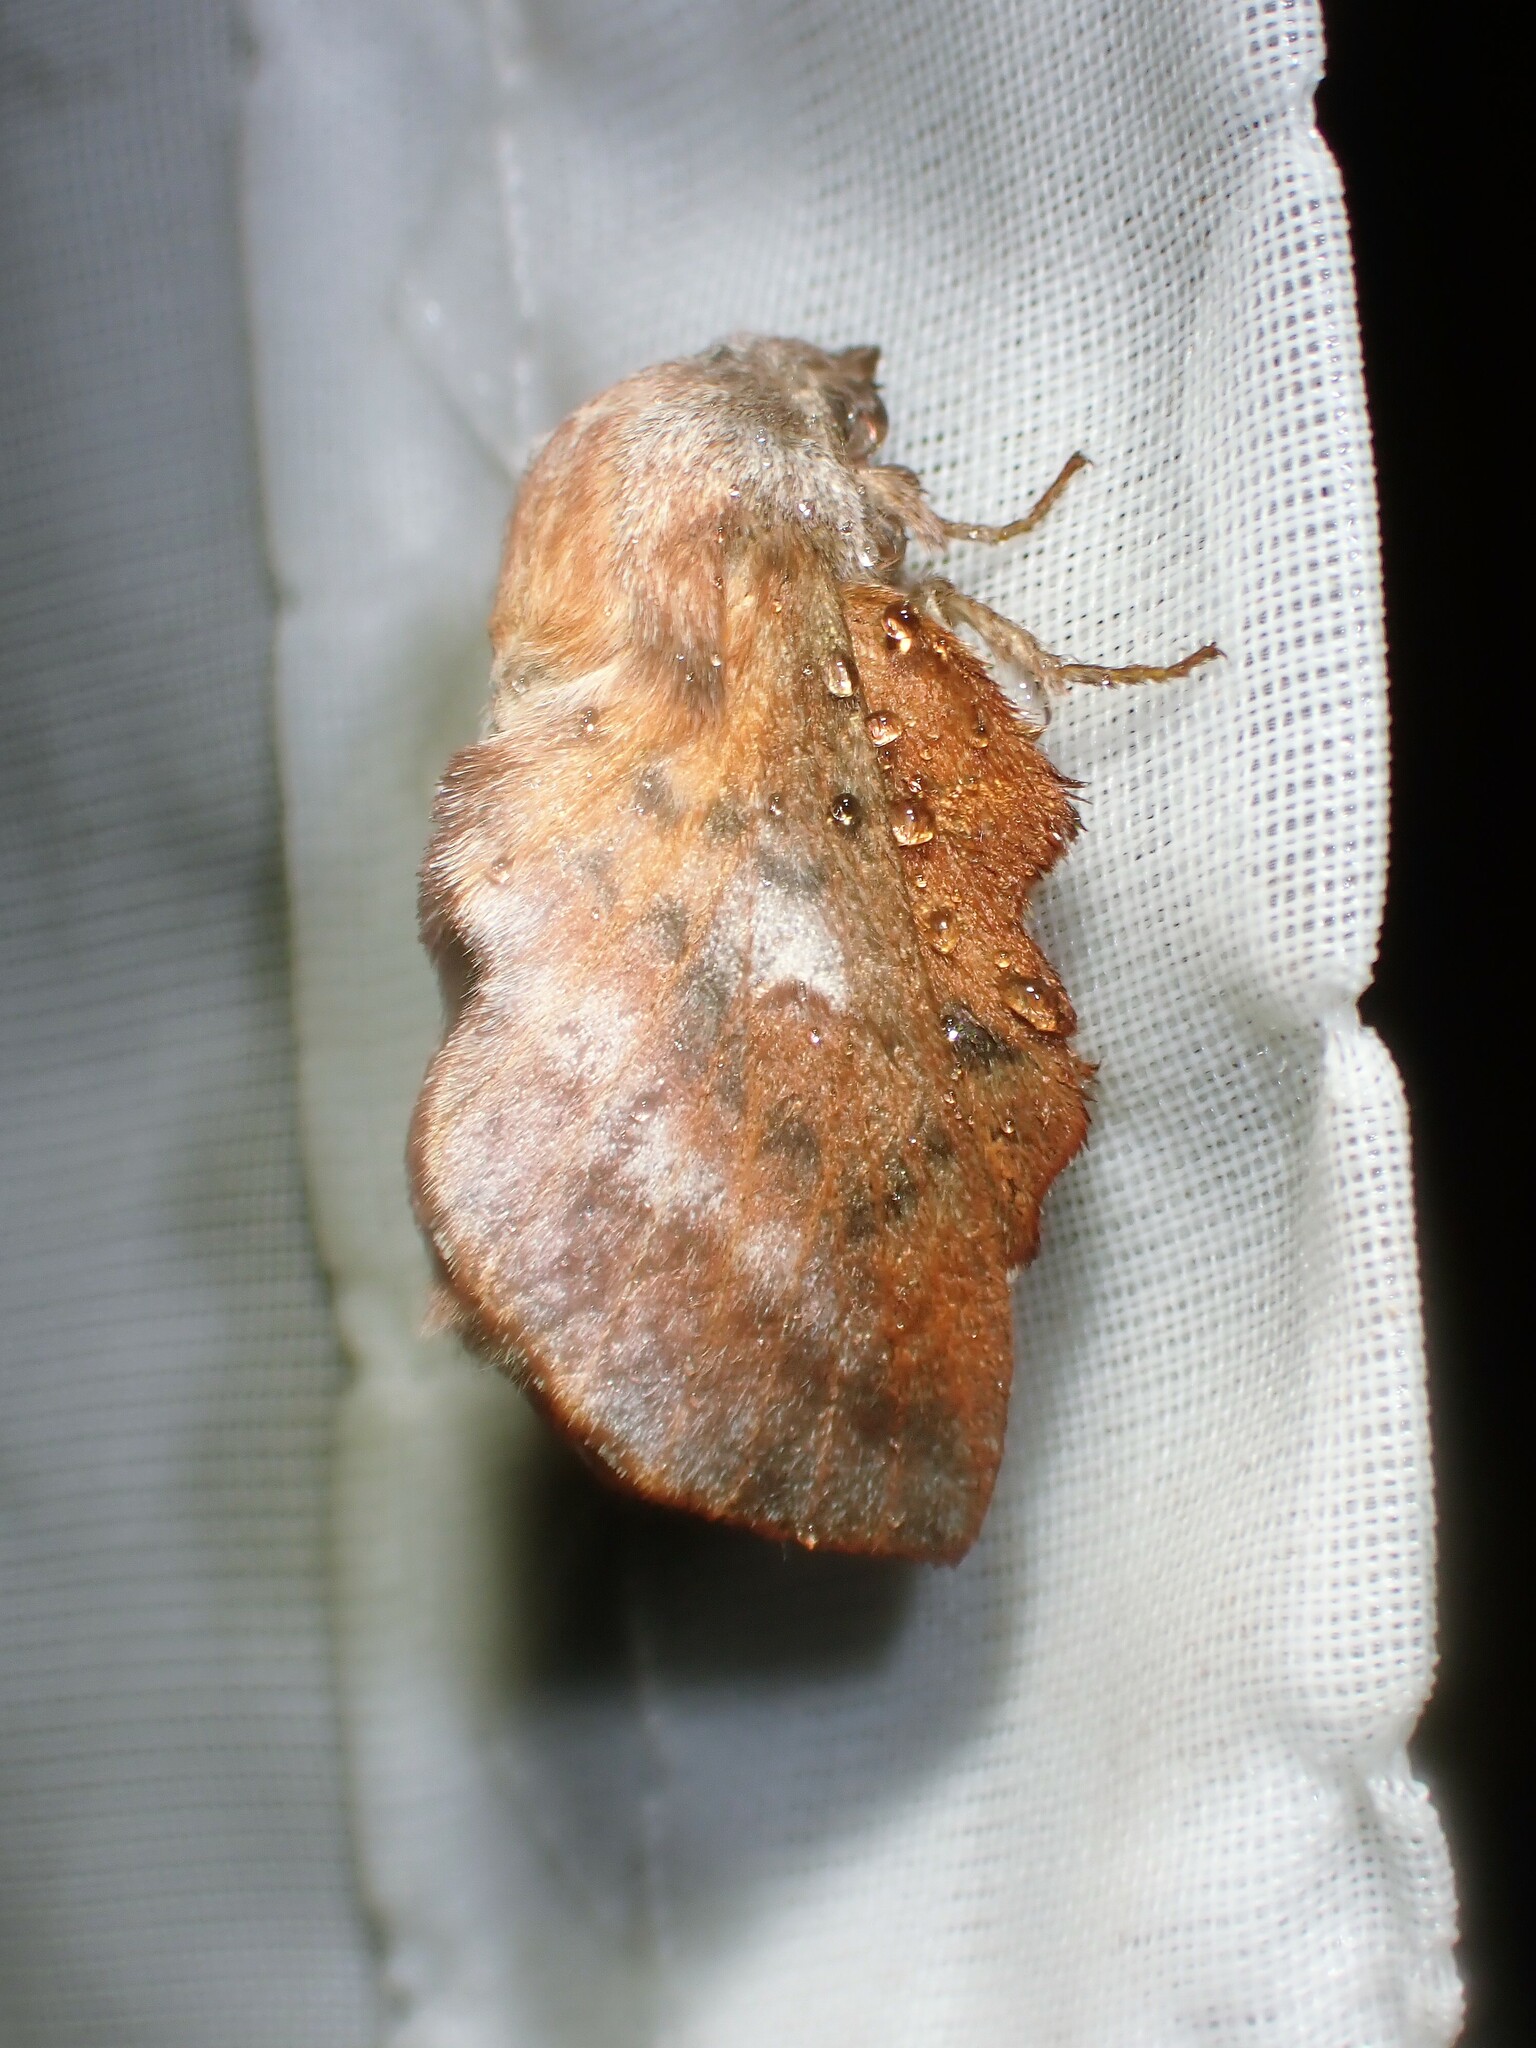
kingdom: Animalia
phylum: Arthropoda
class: Insecta
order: Lepidoptera
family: Lasiocampidae
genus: Phyllodesma
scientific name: Phyllodesma americana
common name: American lappet moth
